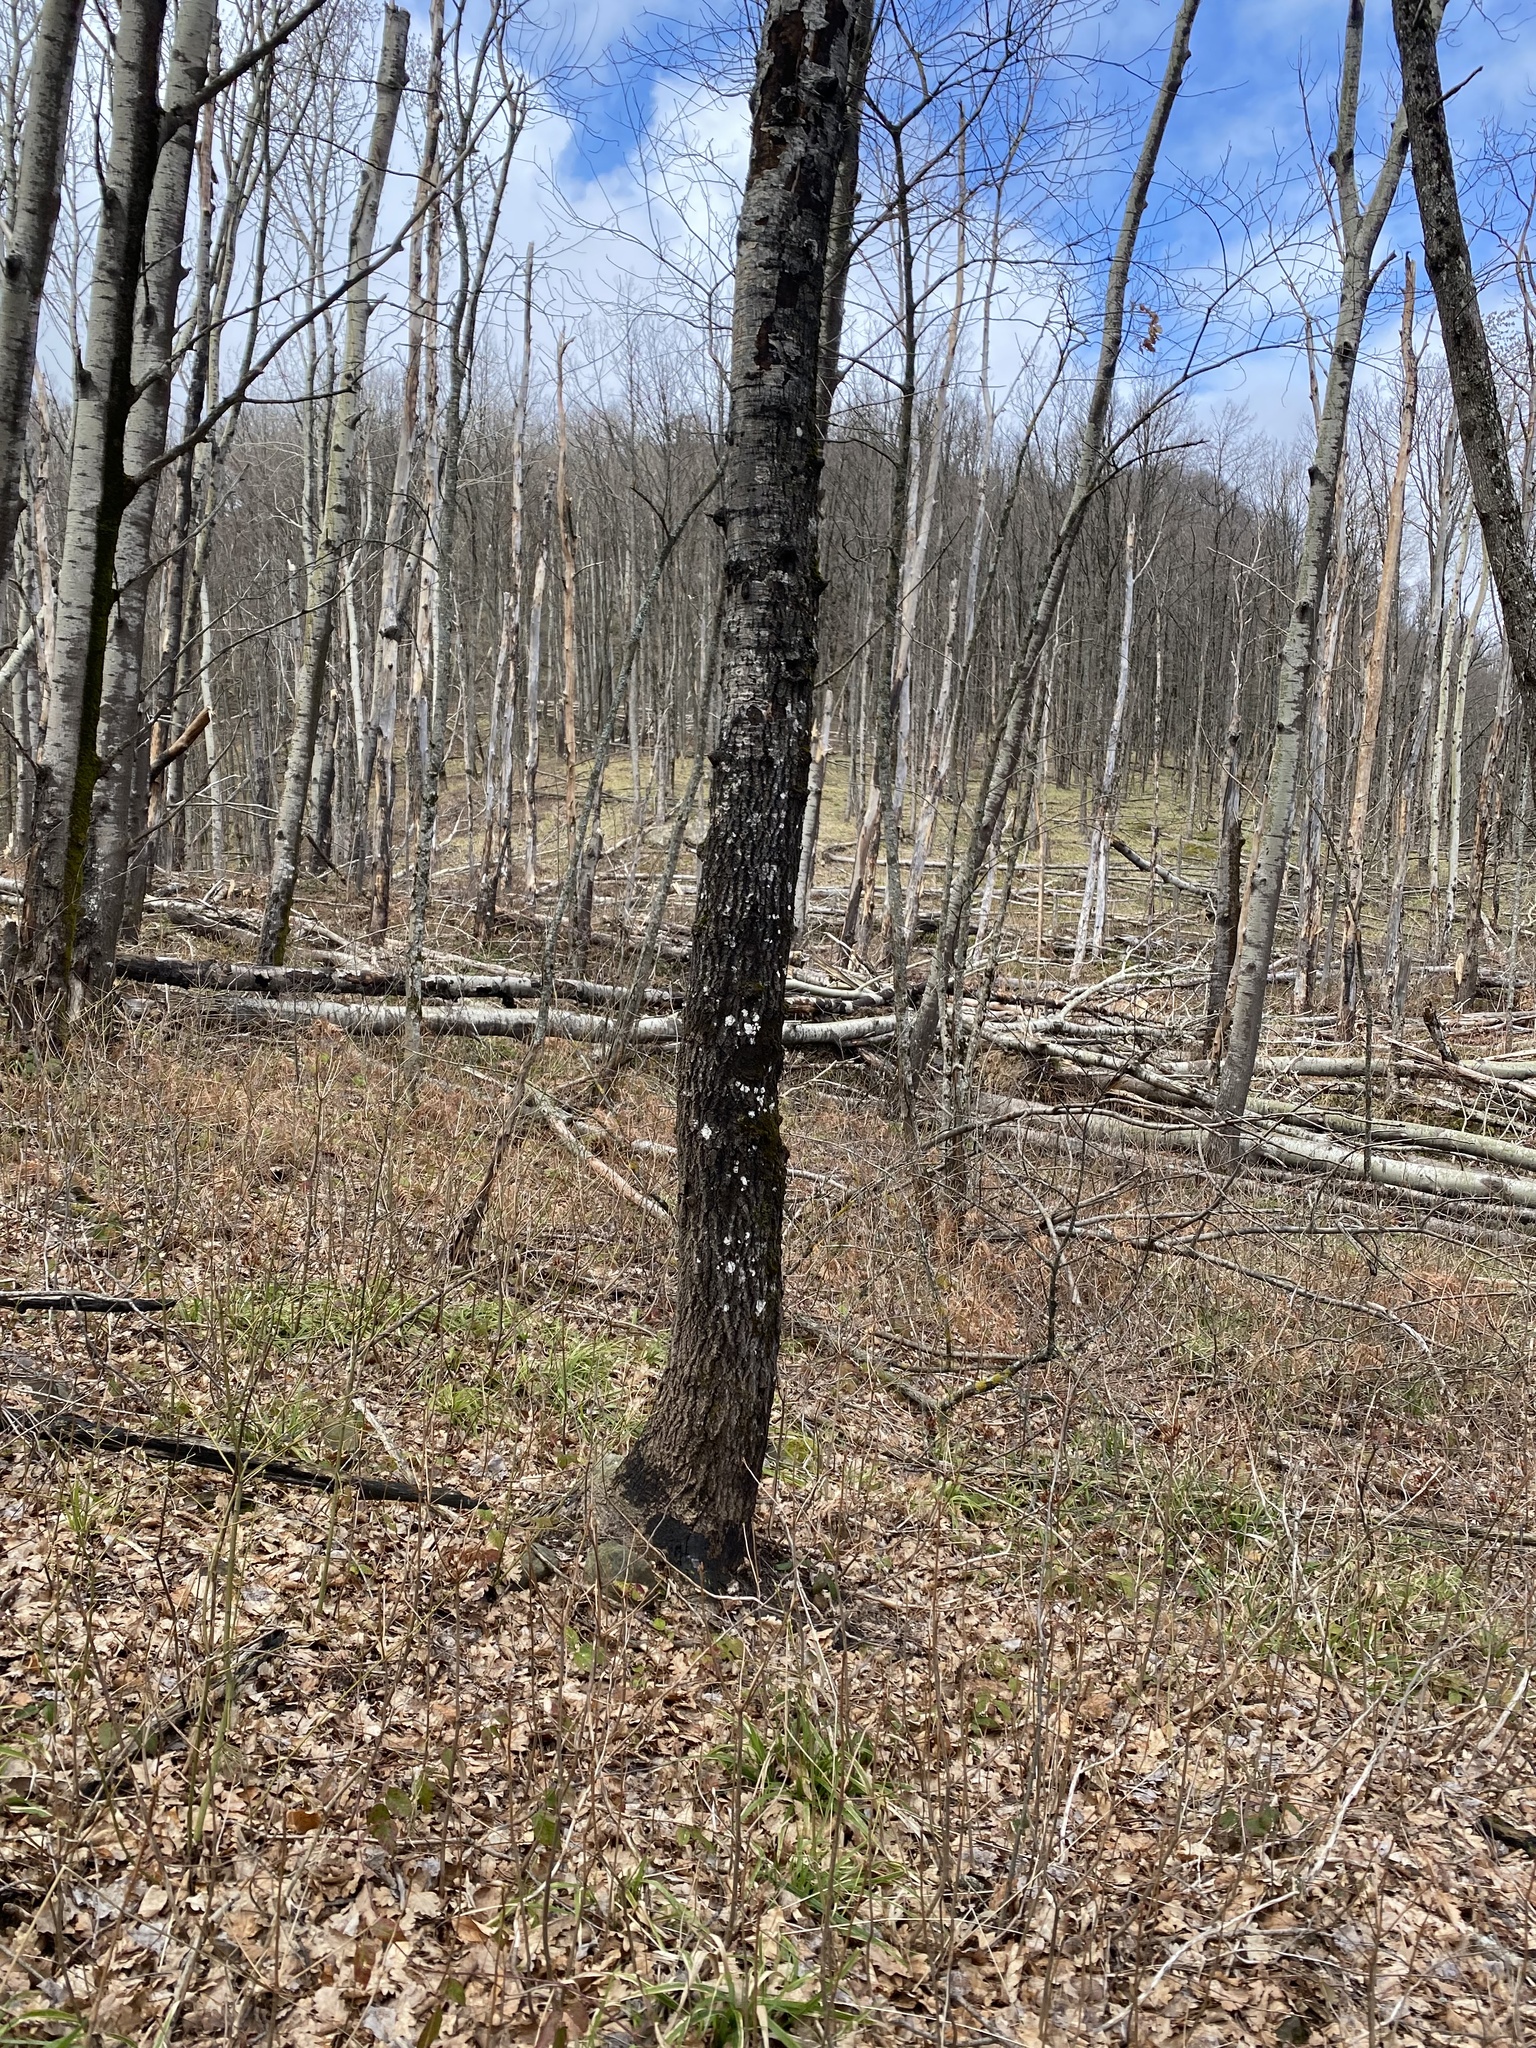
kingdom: Plantae
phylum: Tracheophyta
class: Magnoliopsida
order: Fagales
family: Fagaceae
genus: Fagus
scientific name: Fagus orientalis
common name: Oriental beech
